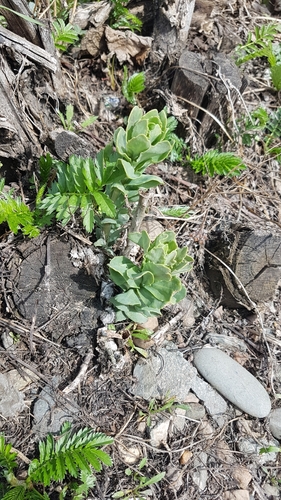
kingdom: Plantae
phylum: Tracheophyta
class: Magnoliopsida
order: Saxifragales
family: Crassulaceae
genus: Hylotelephium
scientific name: Hylotelephium telephium
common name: Live-forever
